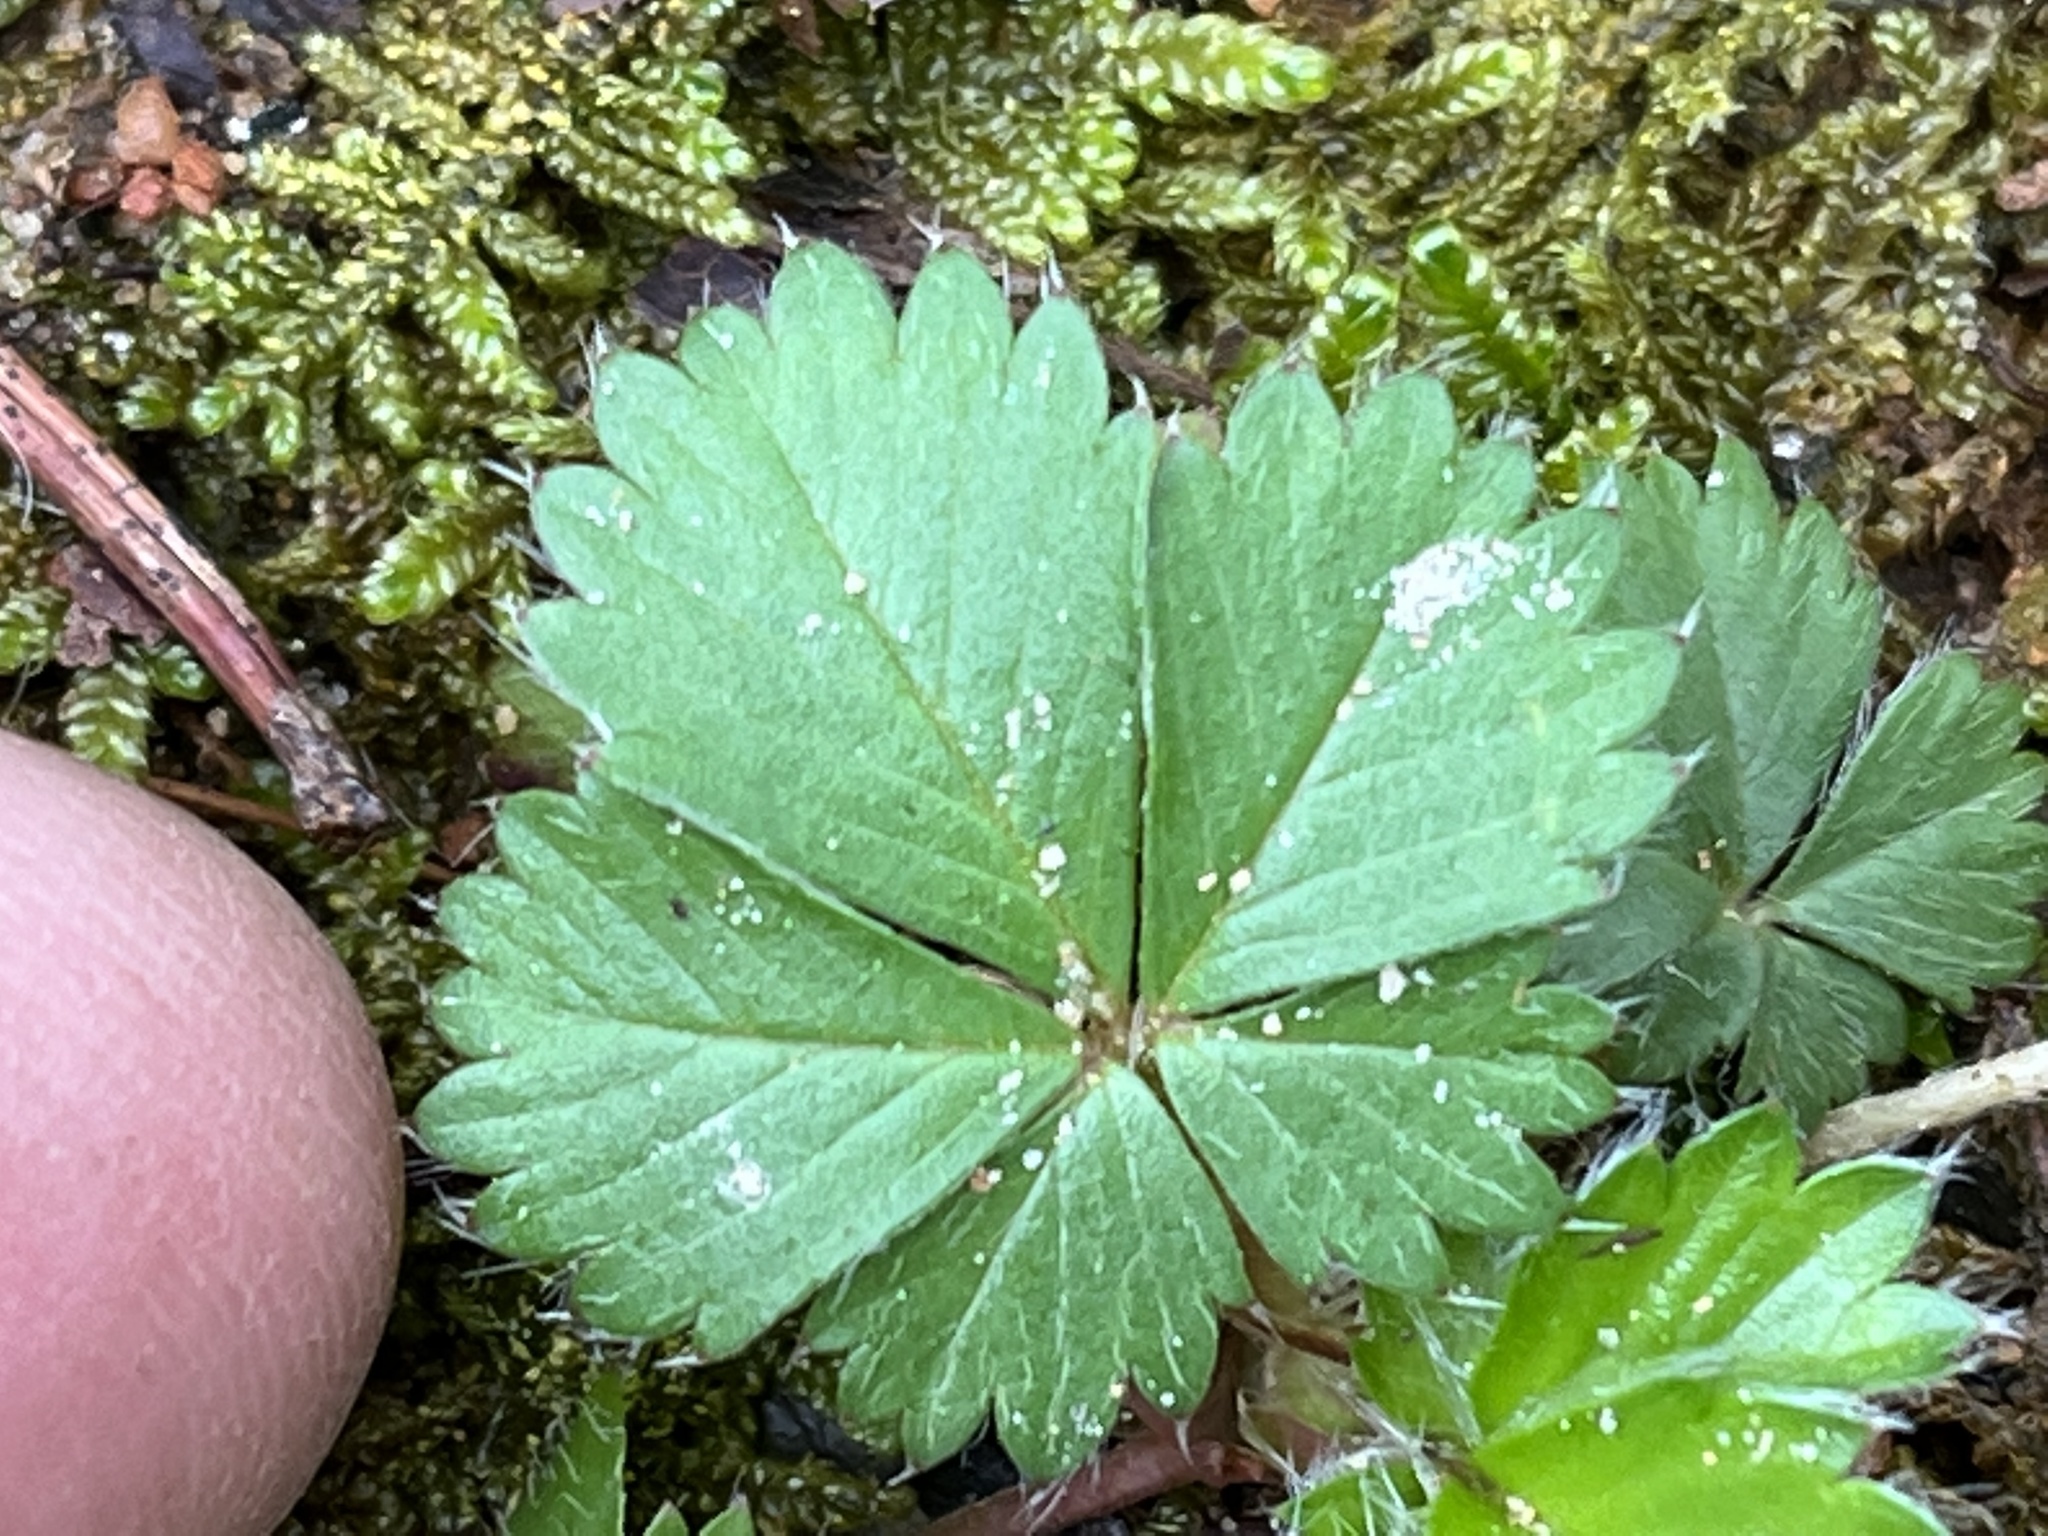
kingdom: Plantae
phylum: Tracheophyta
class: Magnoliopsida
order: Rosales
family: Rosaceae
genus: Potentilla
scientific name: Potentilla canadensis
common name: Canada cinquefoil
